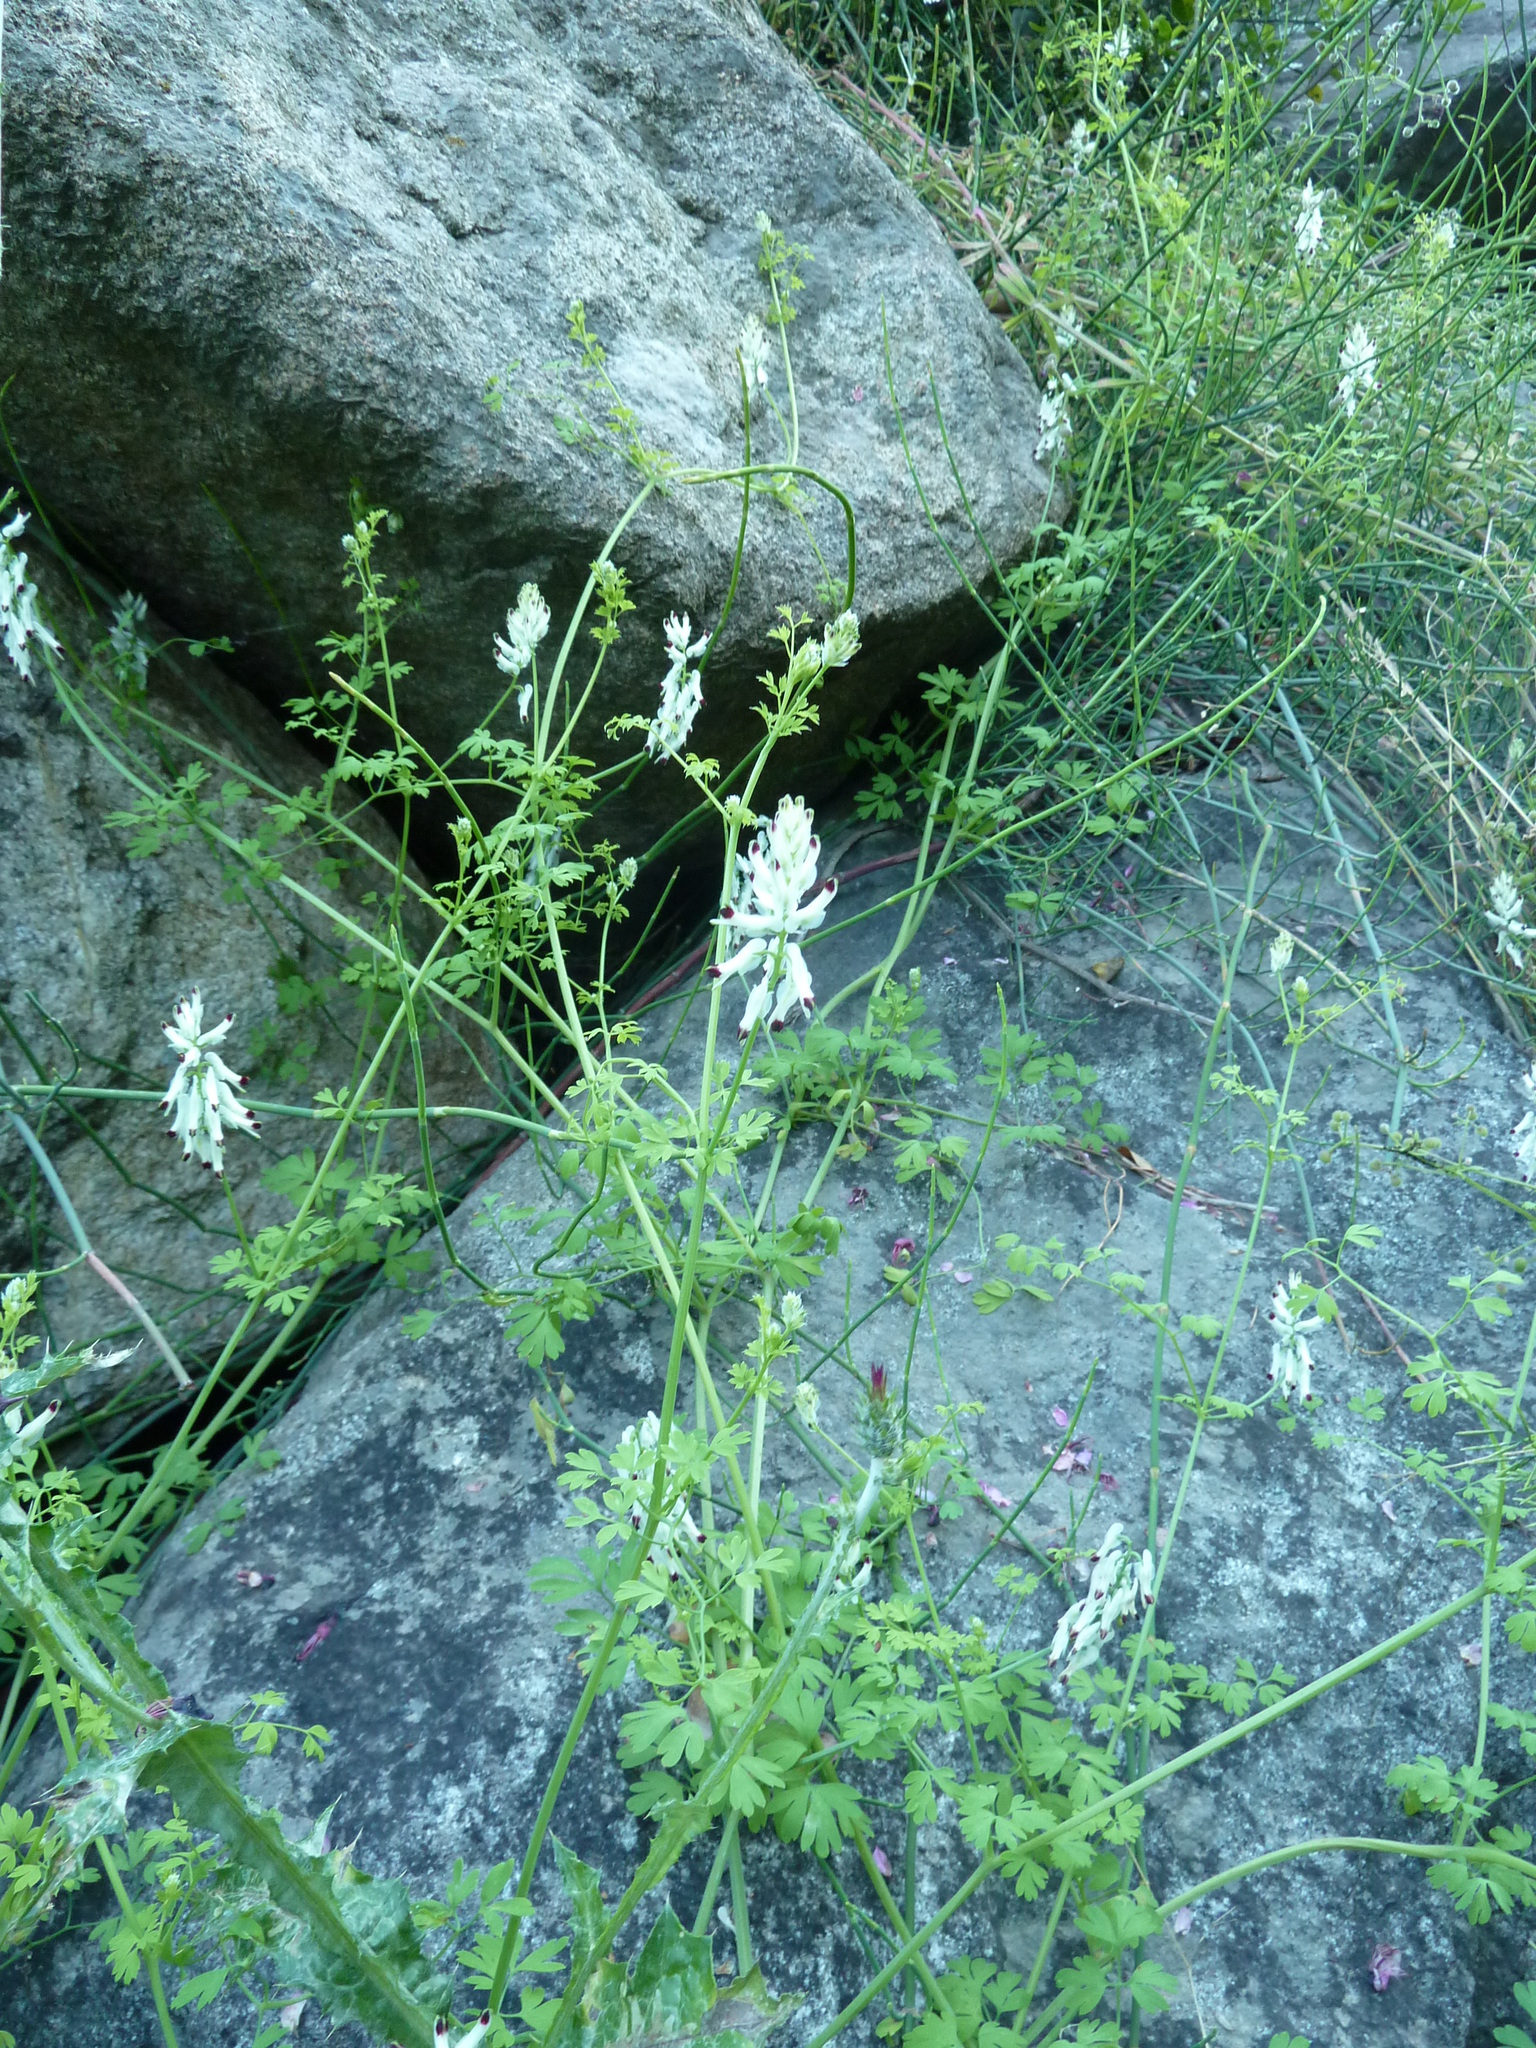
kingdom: Plantae
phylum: Tracheophyta
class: Magnoliopsida
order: Ranunculales
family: Papaveraceae
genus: Fumaria
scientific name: Fumaria capreolata
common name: White ramping-fumitory
